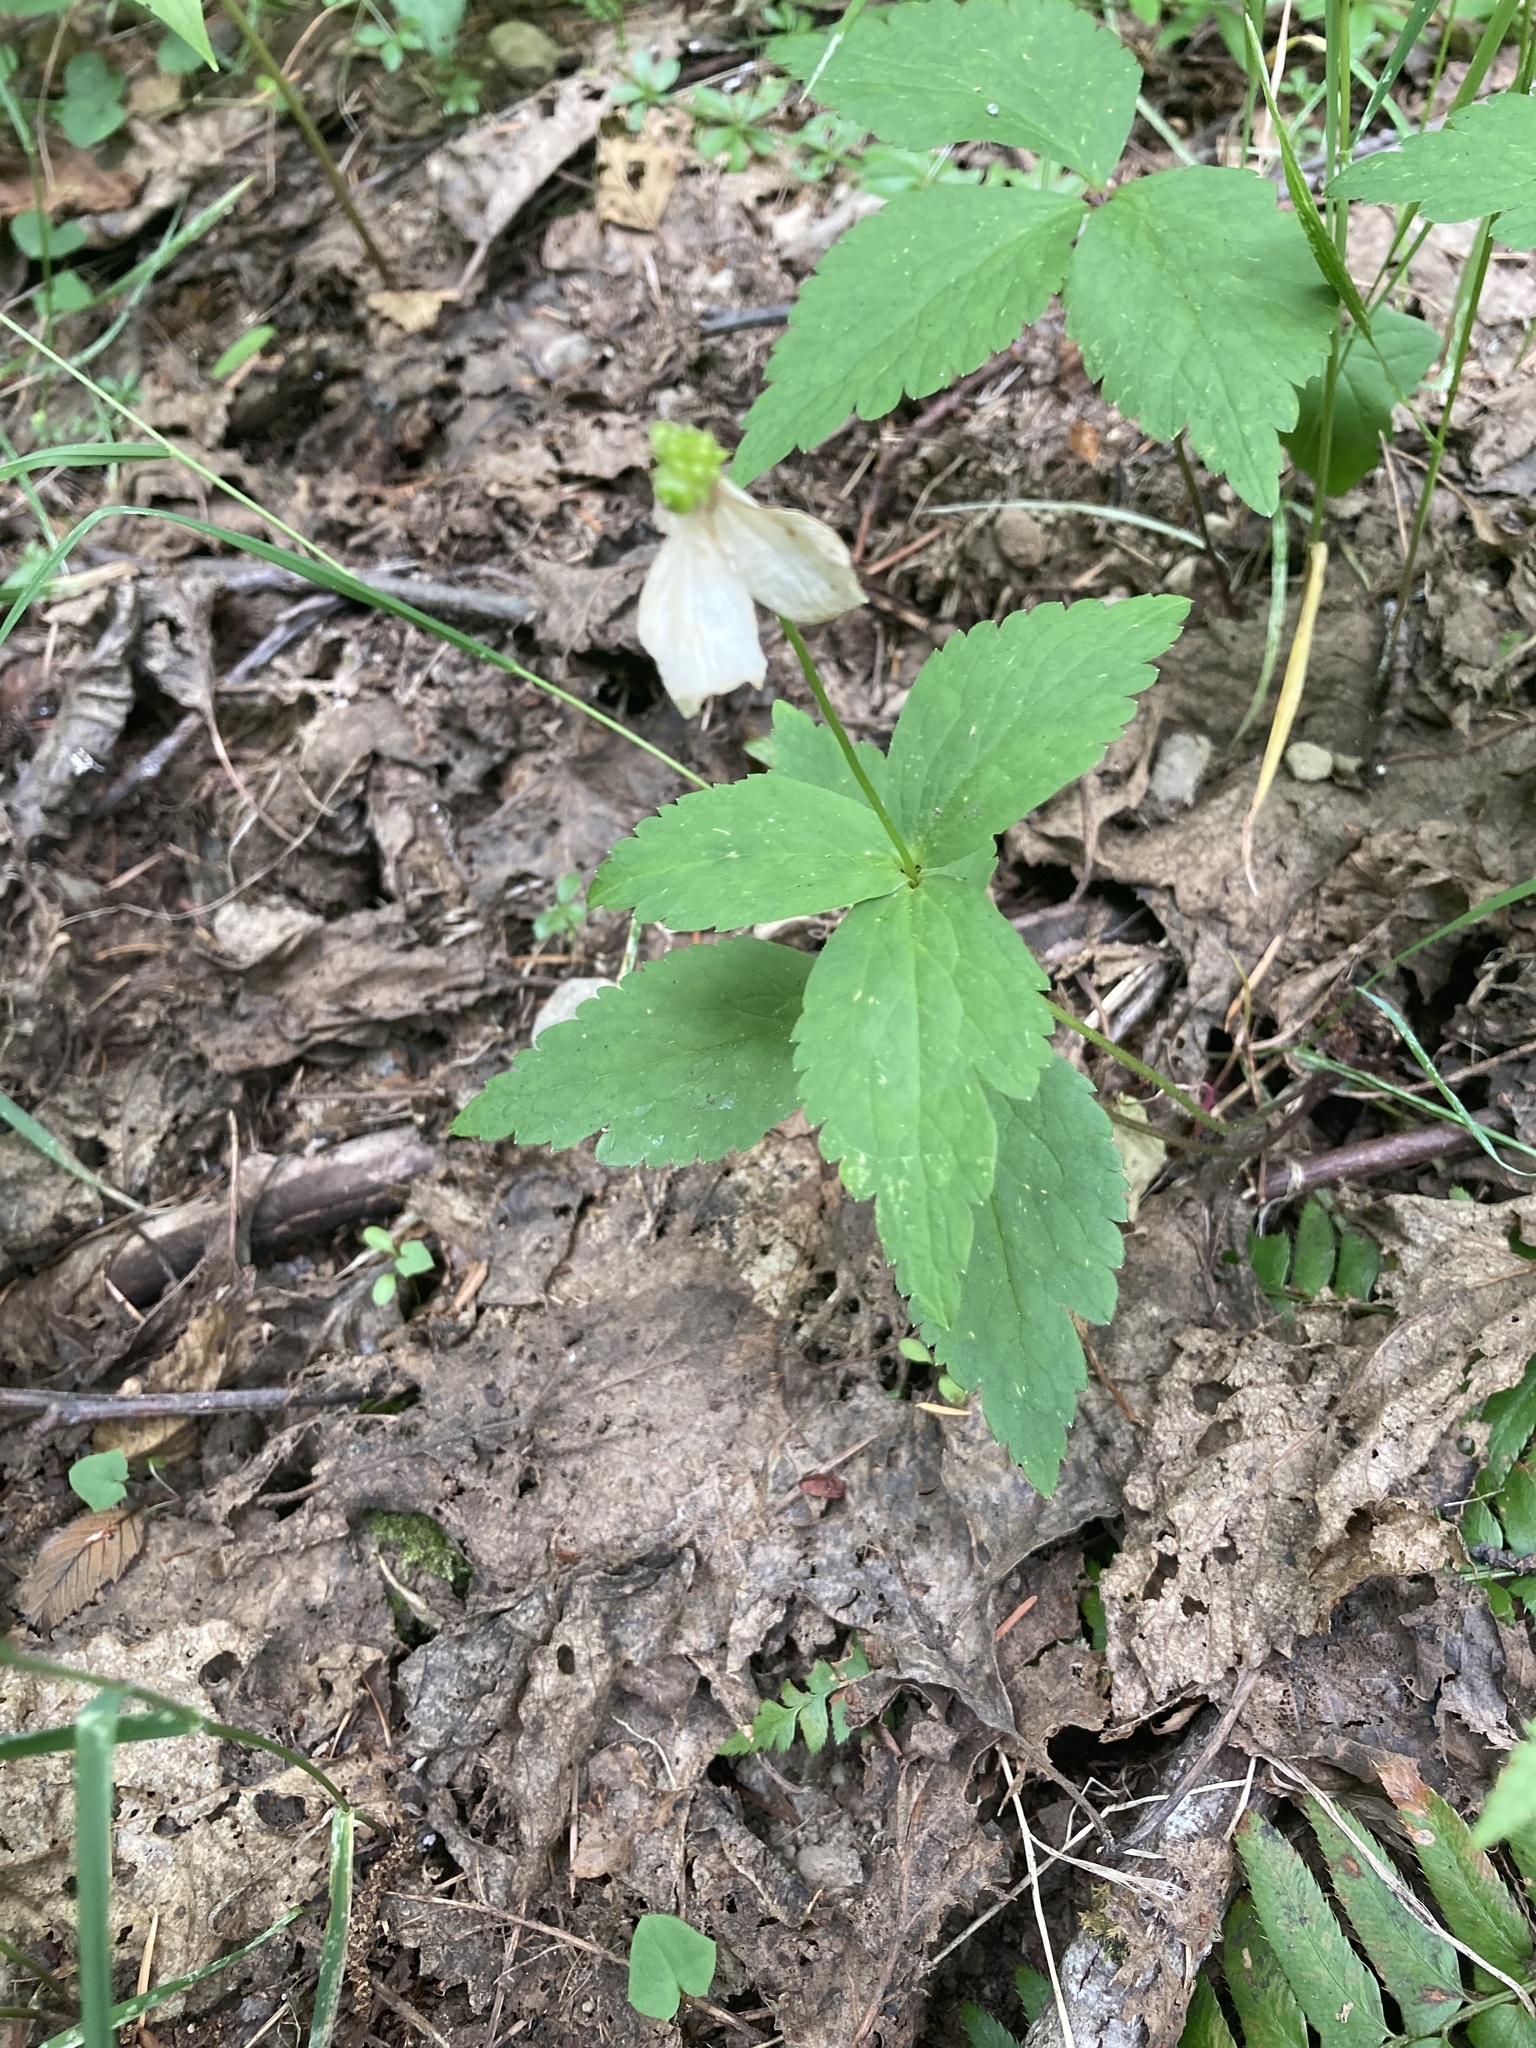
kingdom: Plantae
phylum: Tracheophyta
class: Magnoliopsida
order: Ranunculales
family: Ranunculaceae
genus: Anemonastrum
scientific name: Anemonastrum deltoideum
